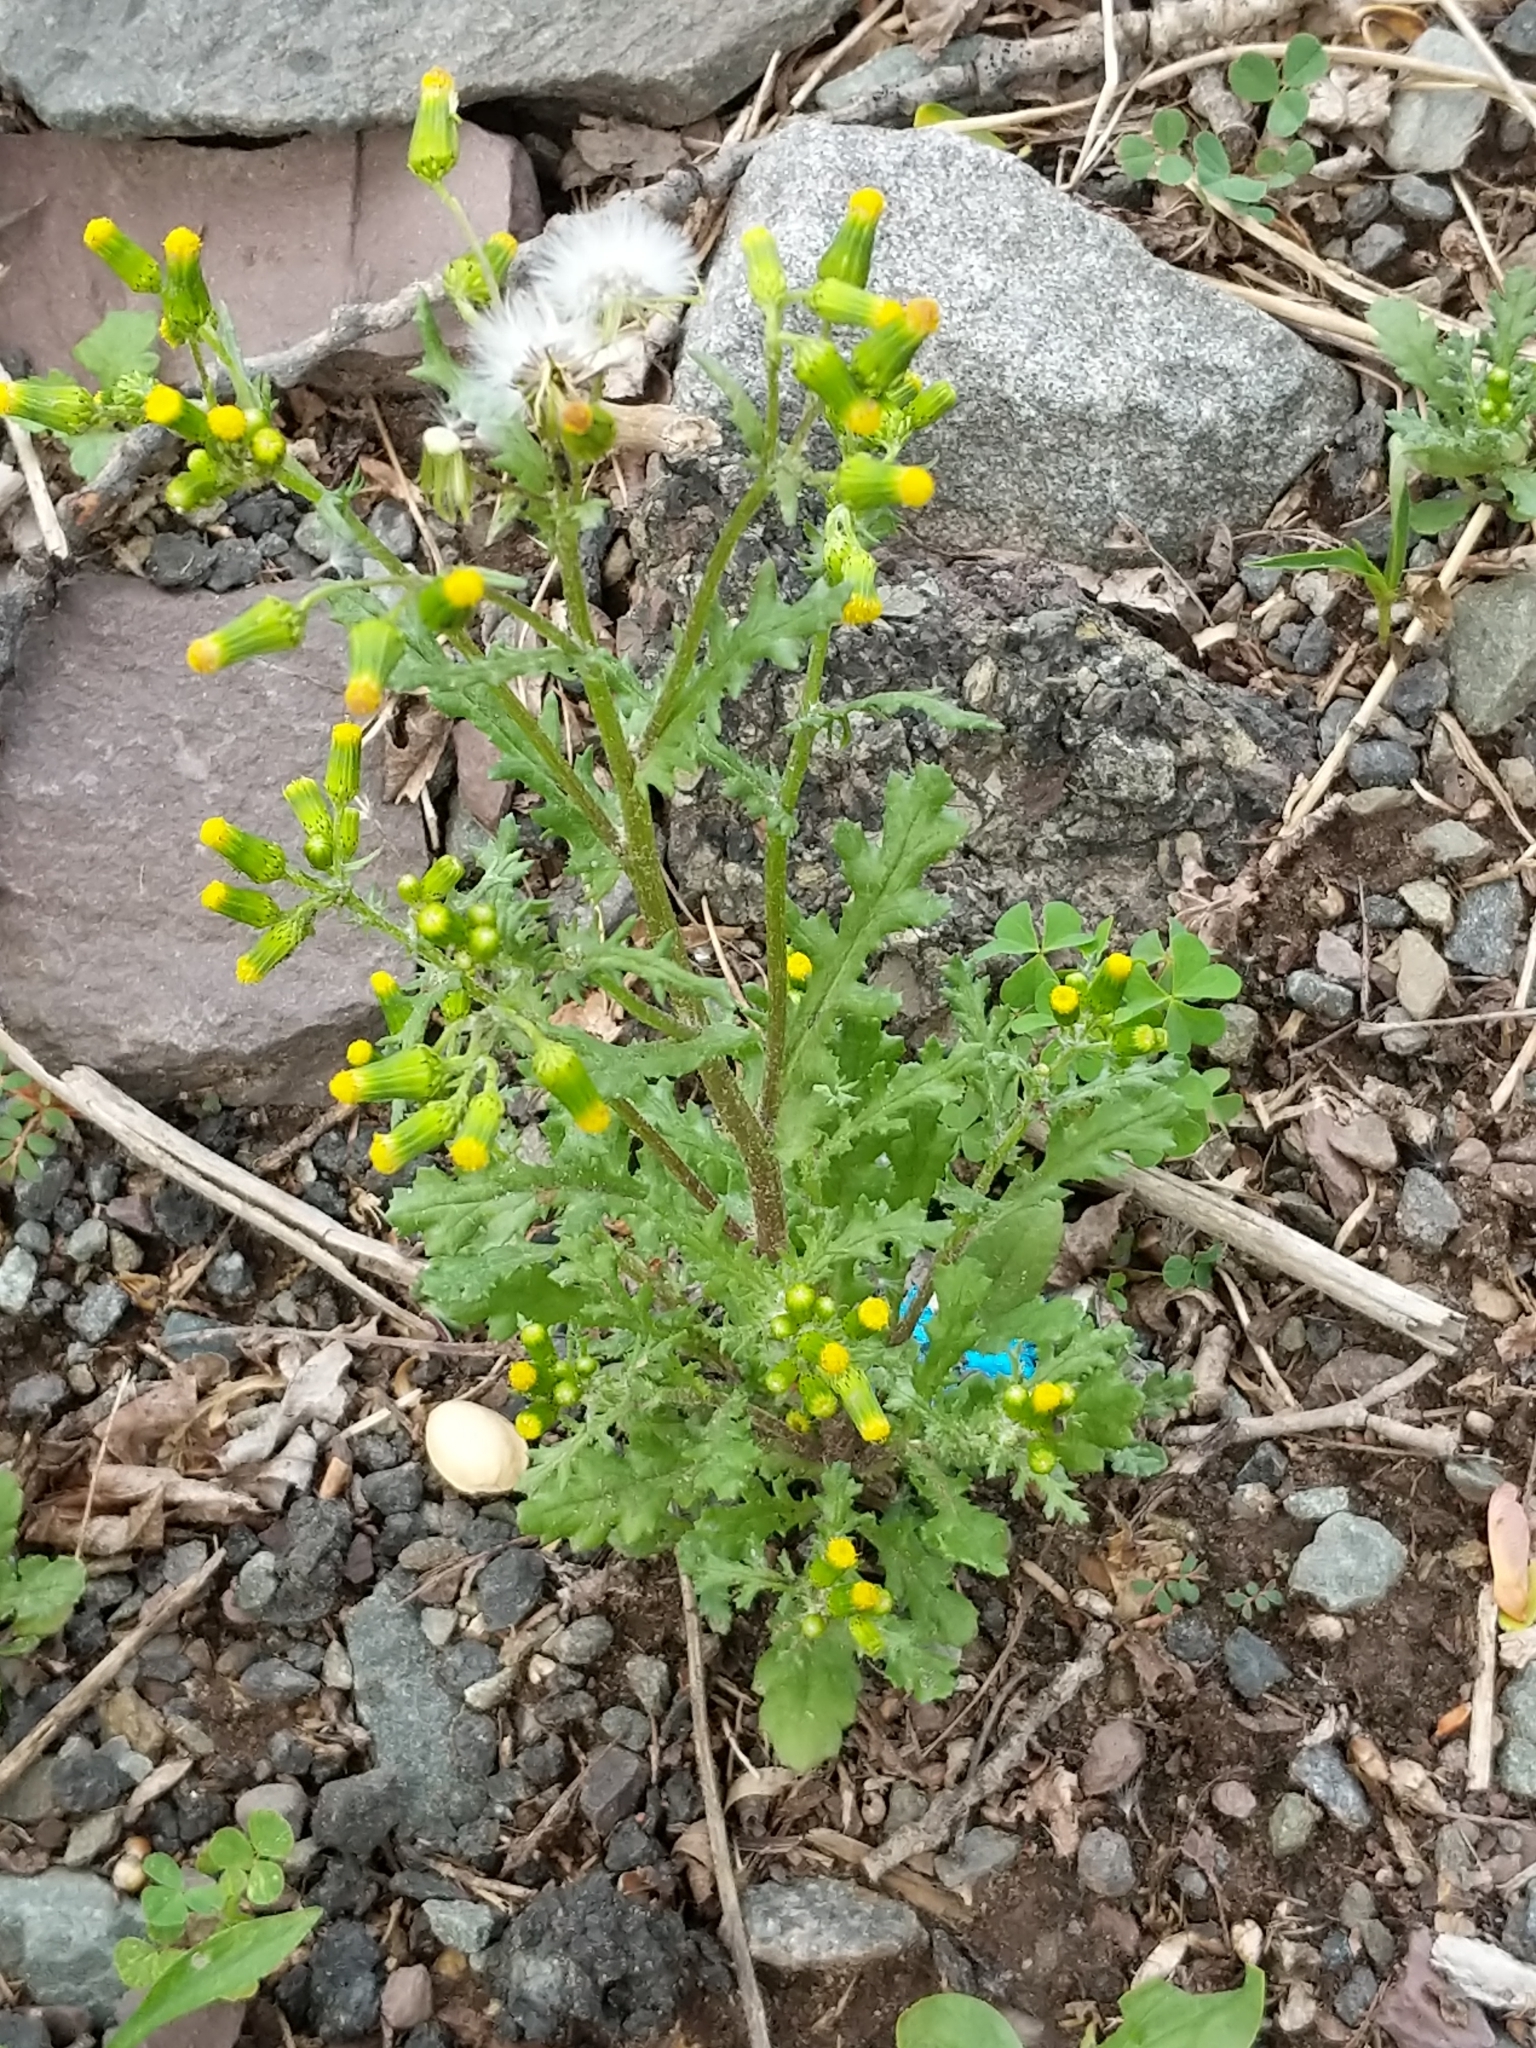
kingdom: Plantae
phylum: Tracheophyta
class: Magnoliopsida
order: Asterales
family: Asteraceae
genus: Senecio
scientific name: Senecio vulgaris
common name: Old-man-in-the-spring
